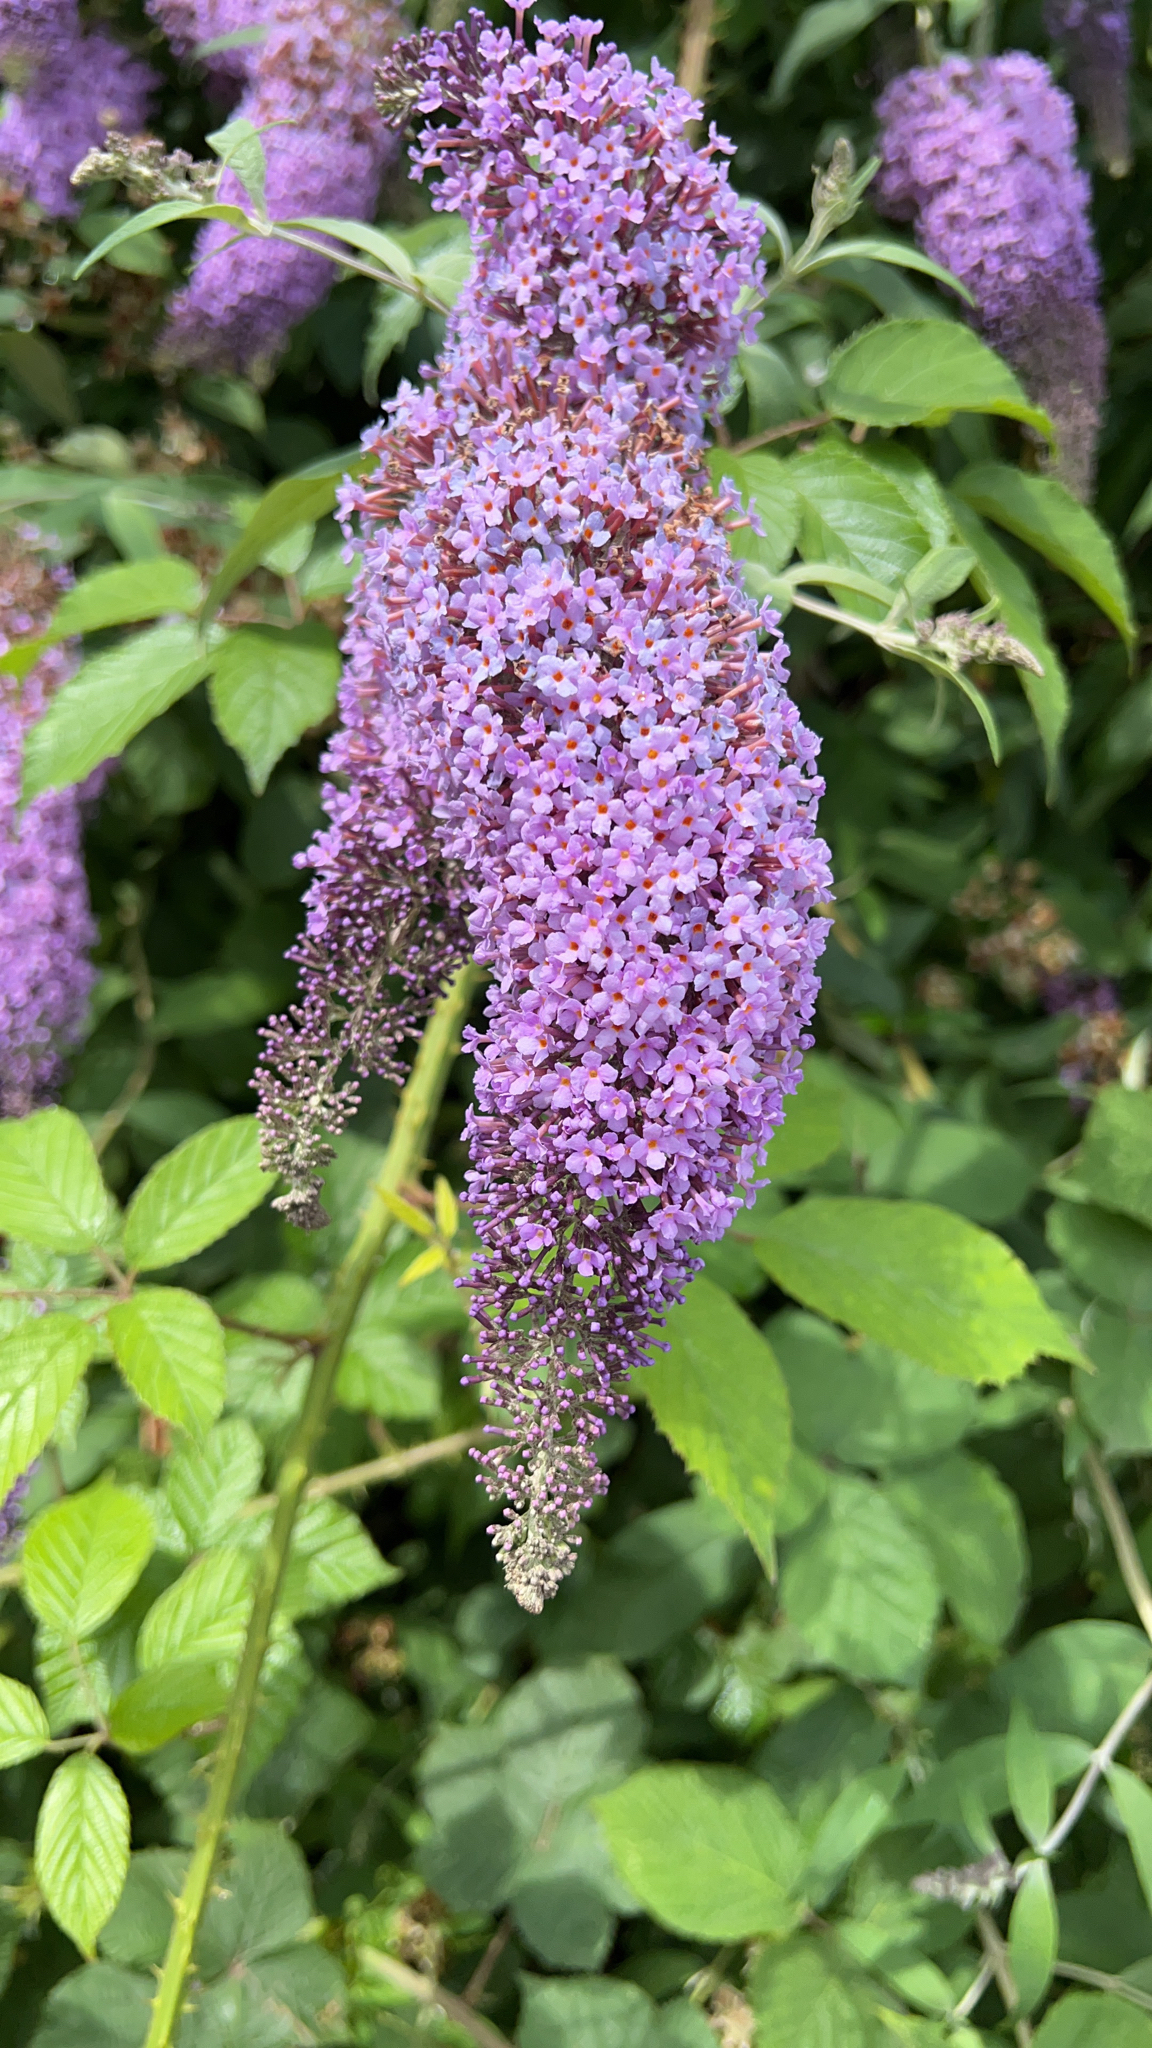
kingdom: Plantae
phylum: Tracheophyta
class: Magnoliopsida
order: Lamiales
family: Scrophulariaceae
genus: Buddleja
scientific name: Buddleja davidii
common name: Butterfly-bush
